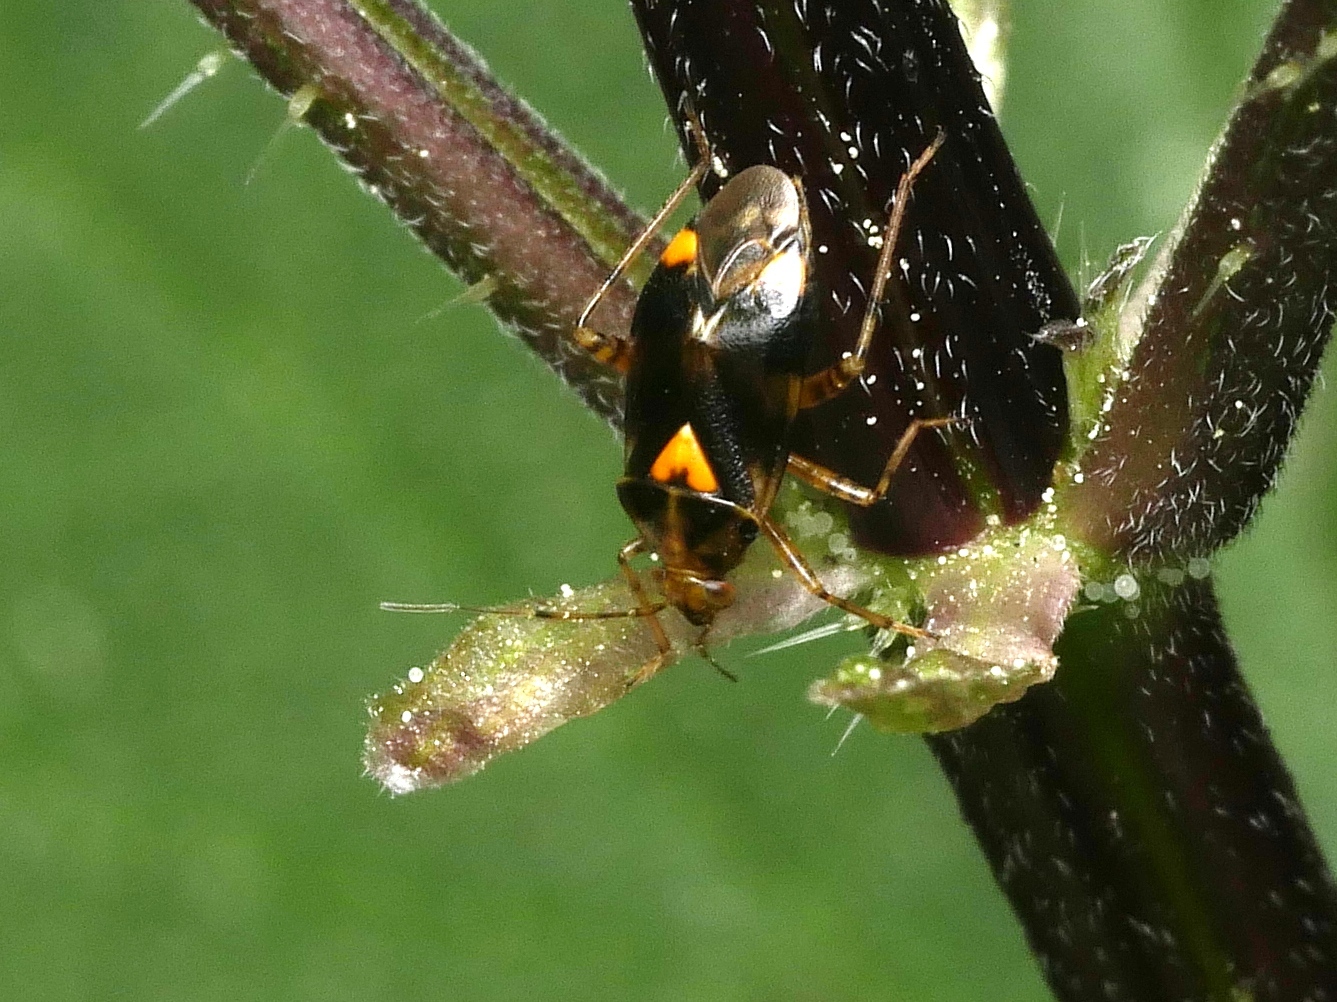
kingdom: Animalia
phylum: Arthropoda
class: Insecta
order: Hemiptera
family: Miridae
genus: Liocoris
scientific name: Liocoris tripustulatus
